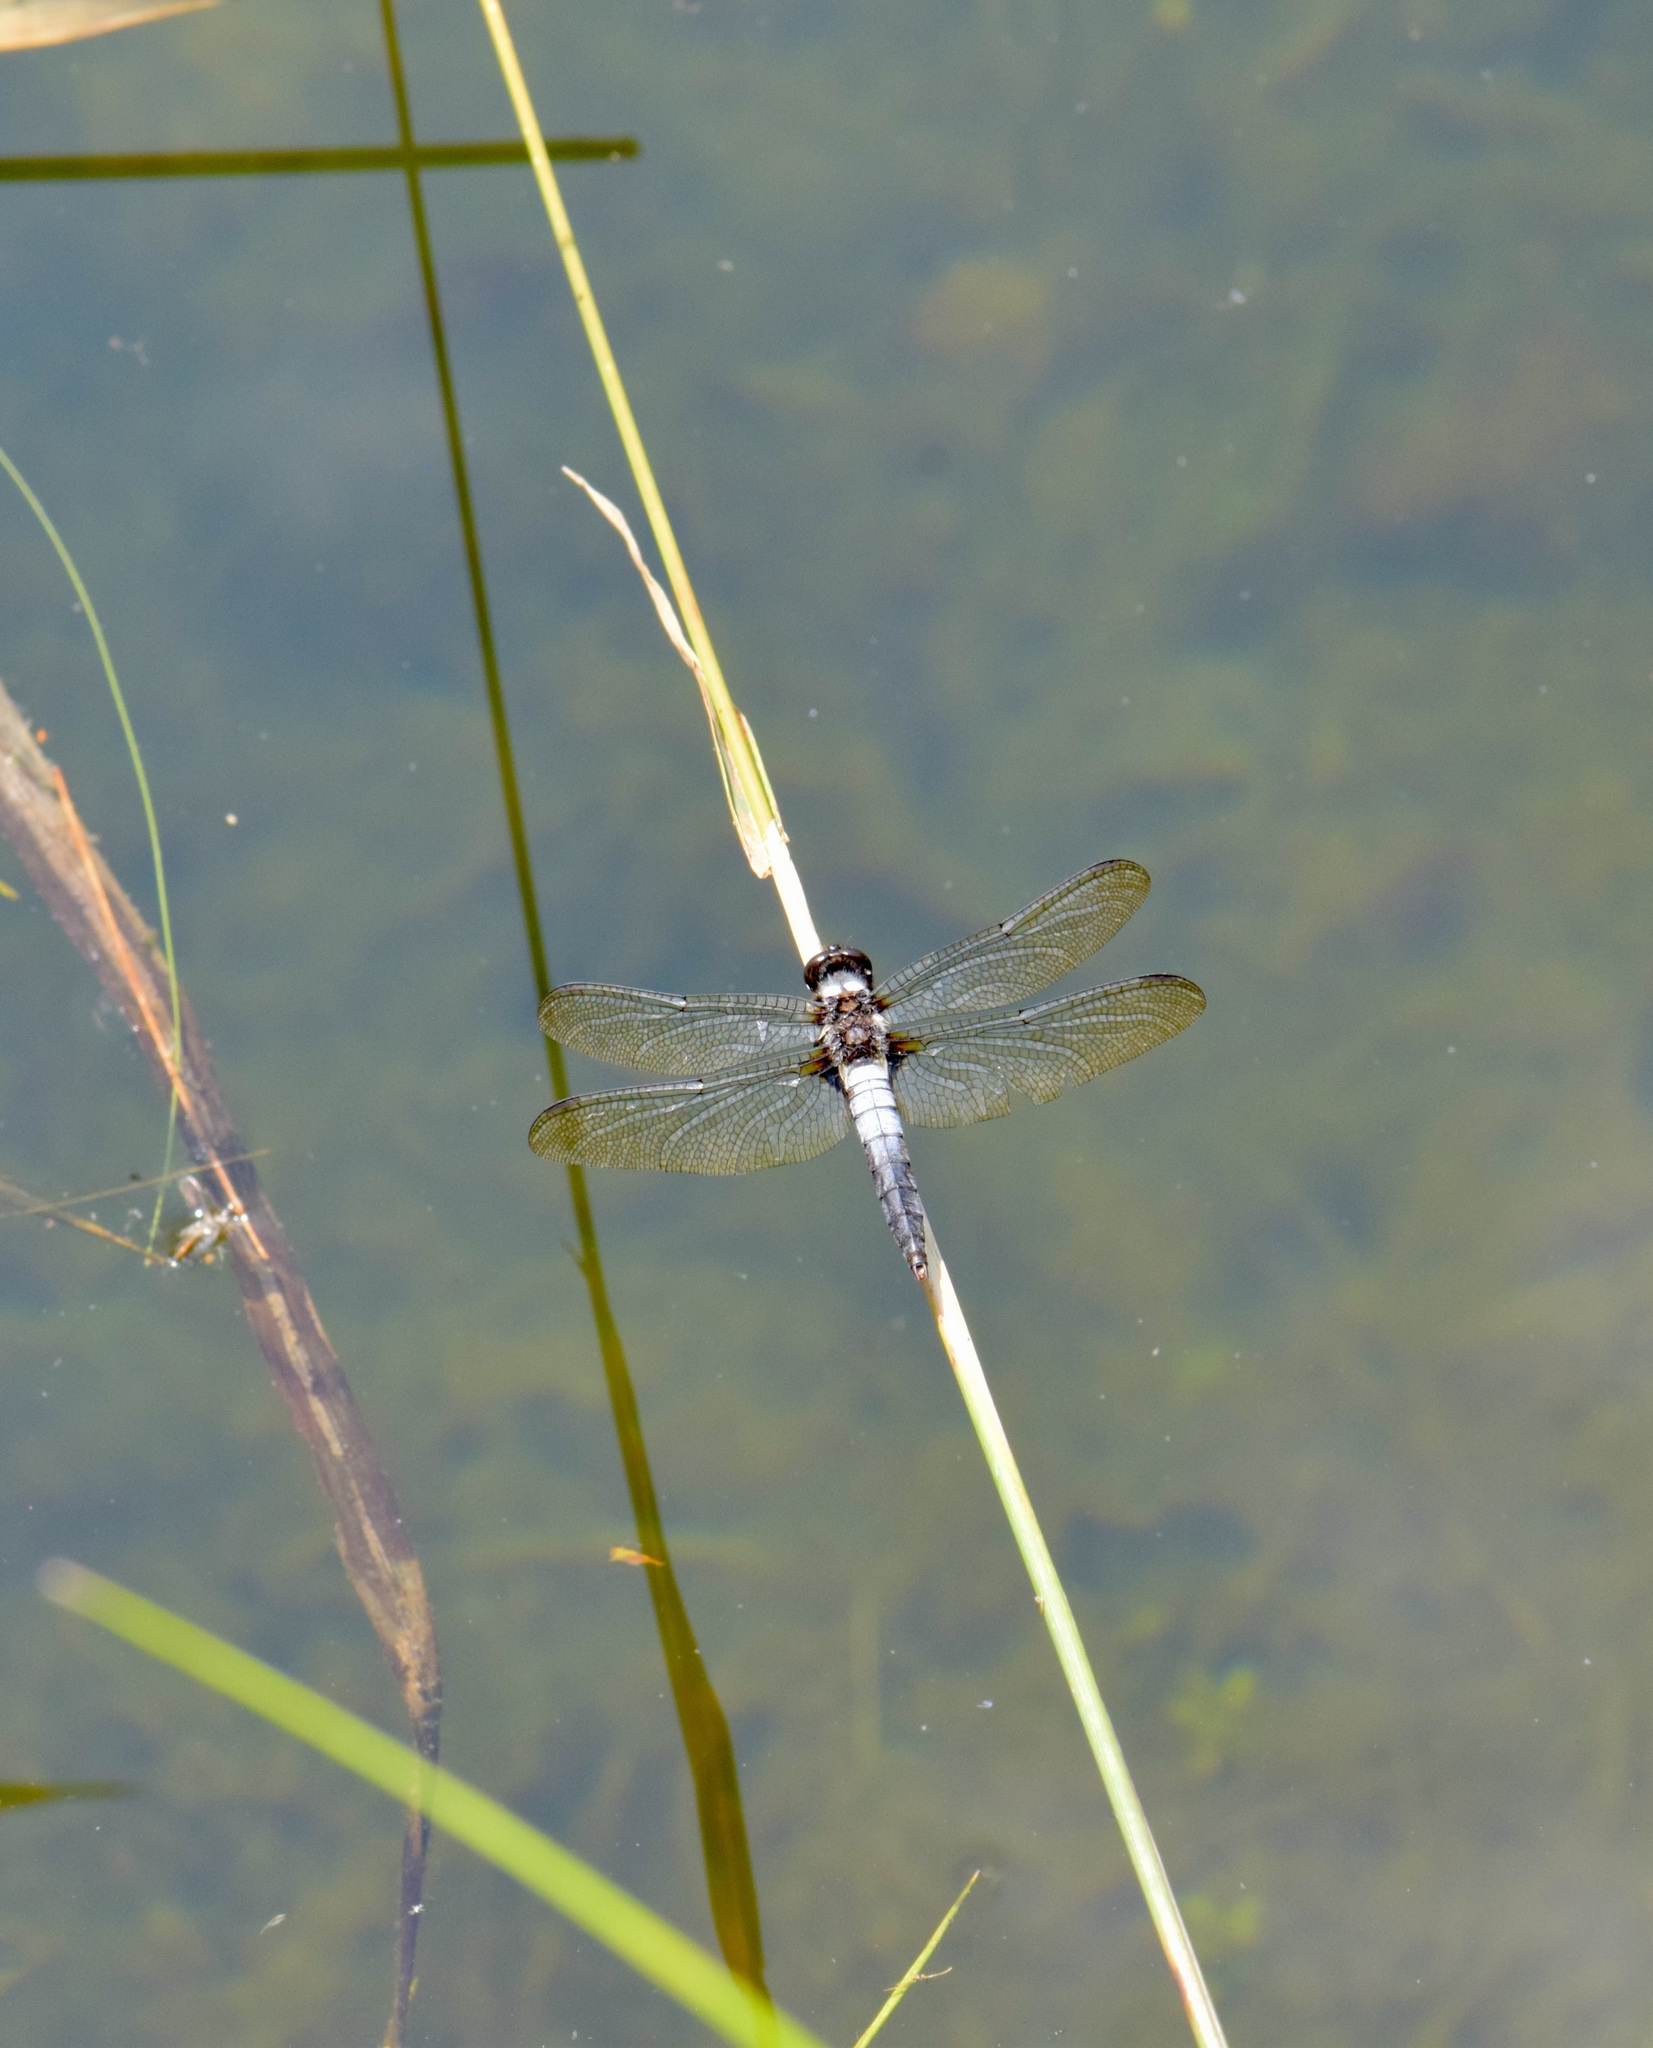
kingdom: Animalia
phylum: Arthropoda
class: Insecta
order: Odonata
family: Libellulidae
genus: Ladona
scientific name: Ladona julia
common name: Chalk-fronted corporal
